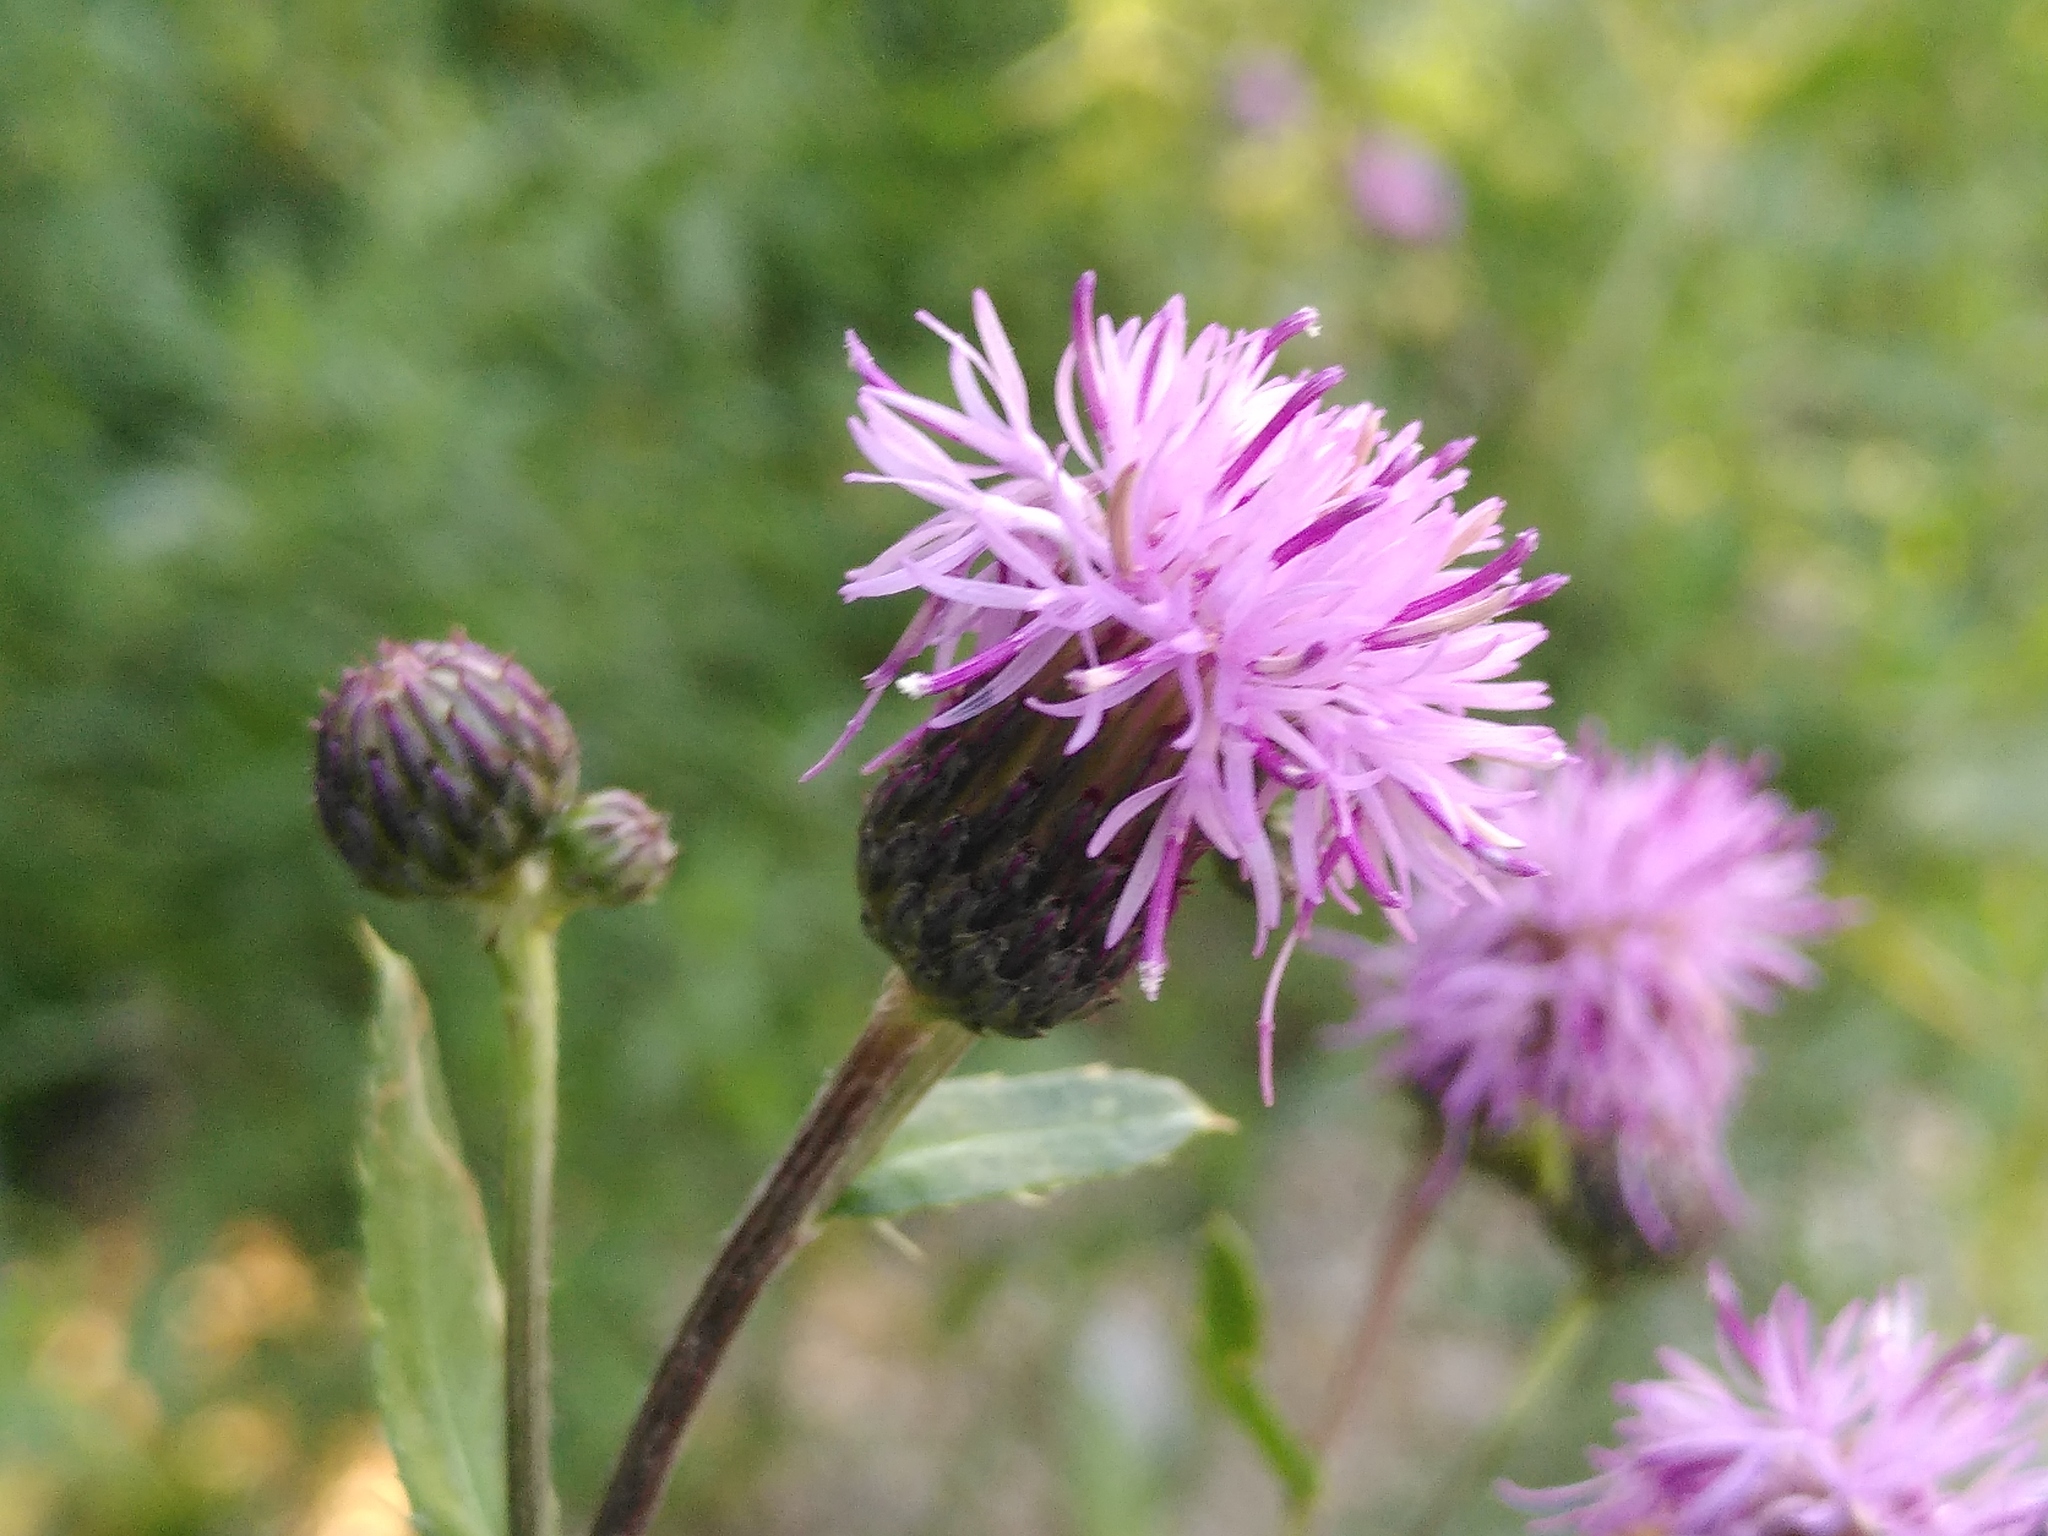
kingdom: Plantae
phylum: Tracheophyta
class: Magnoliopsida
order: Asterales
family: Asteraceae
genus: Cirsium
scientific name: Cirsium arvense
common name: Creeping thistle
